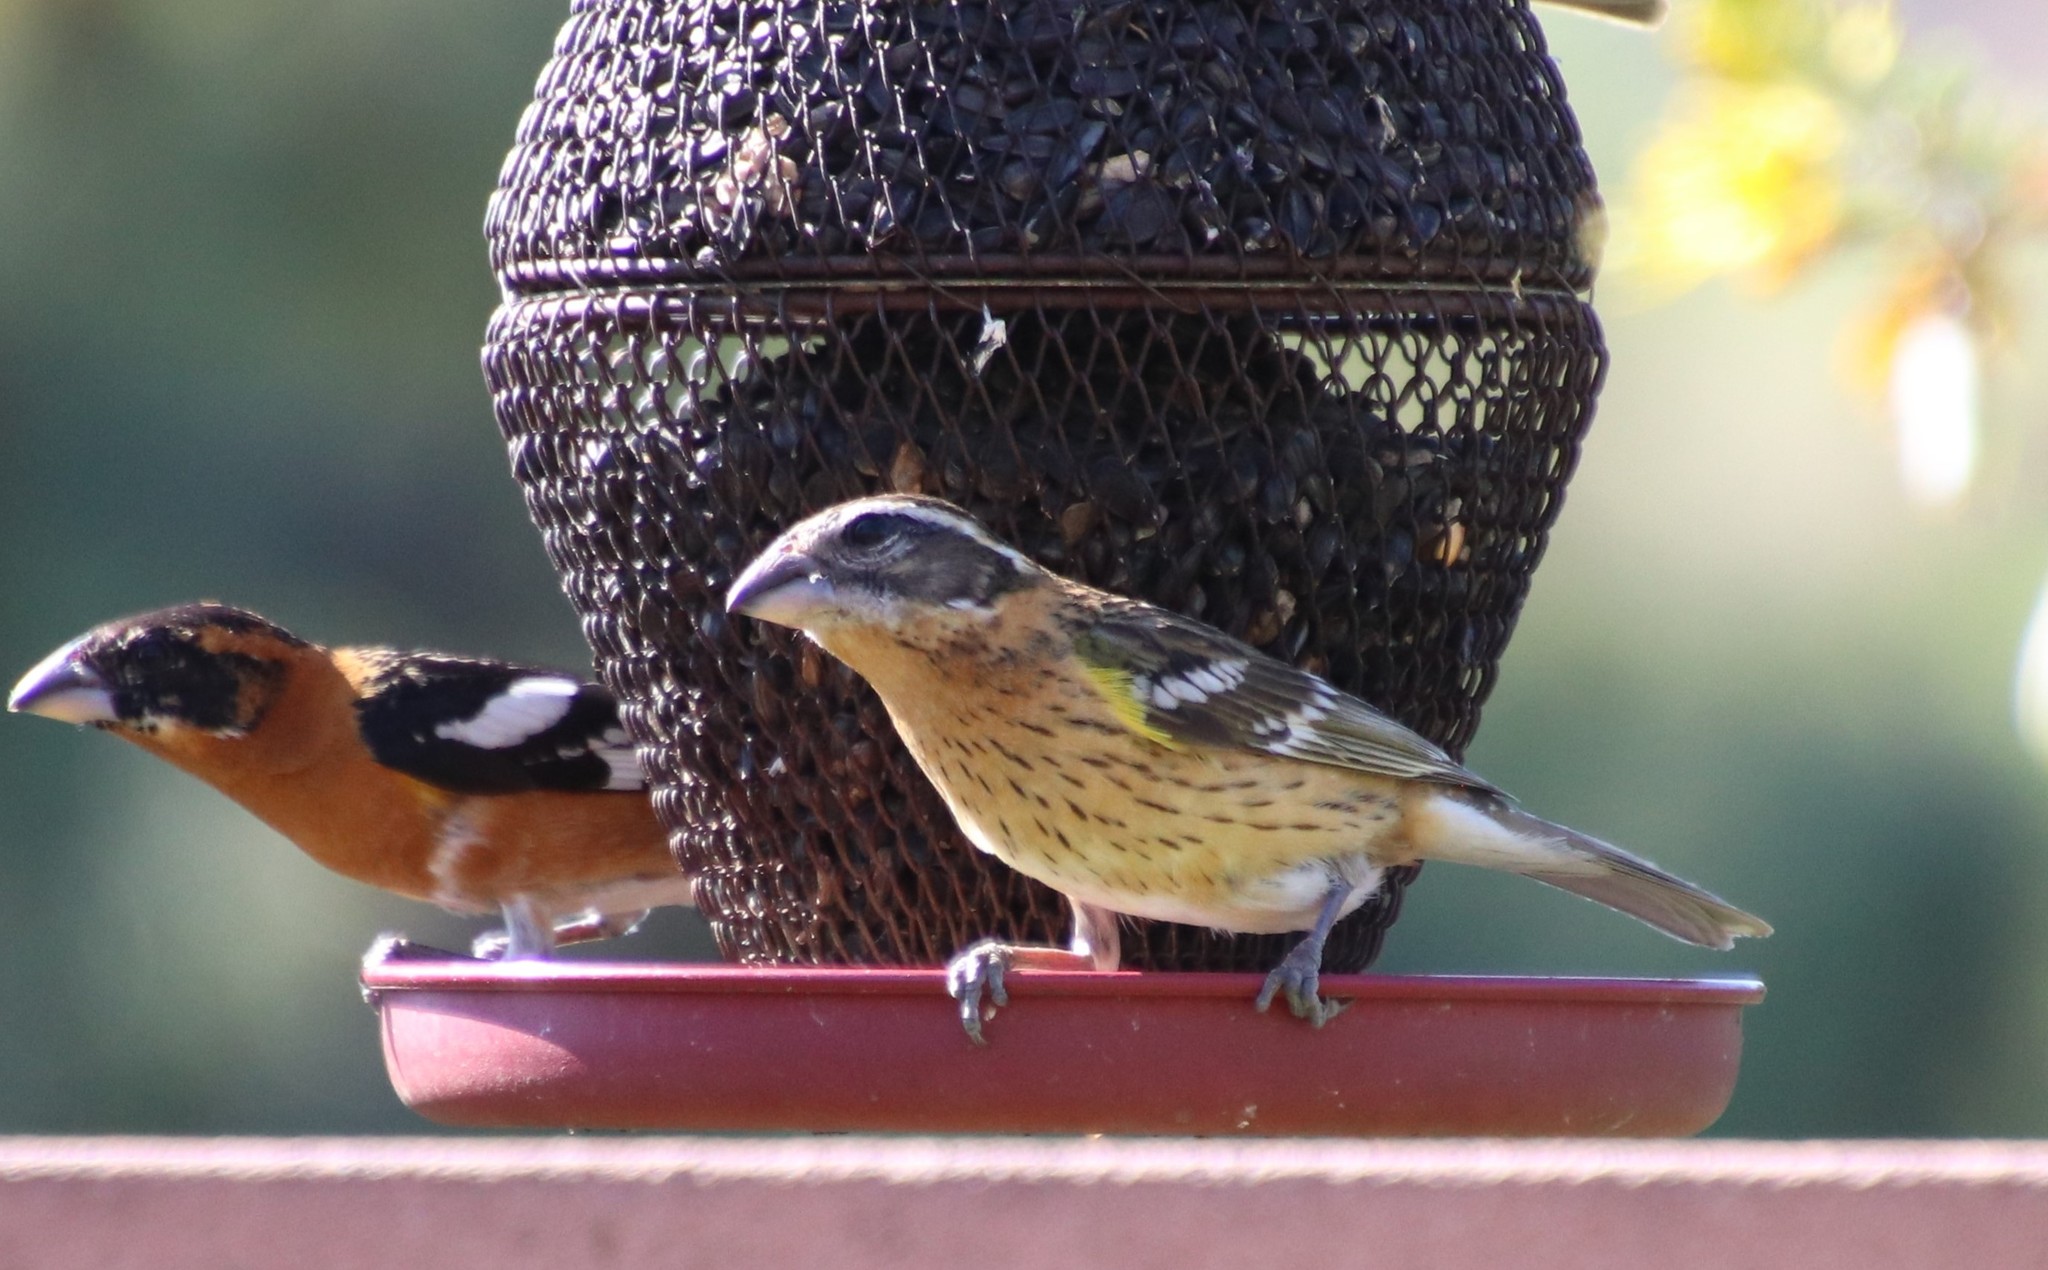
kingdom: Animalia
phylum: Chordata
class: Aves
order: Passeriformes
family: Cardinalidae
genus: Pheucticus
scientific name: Pheucticus melanocephalus
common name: Black-headed grosbeak
